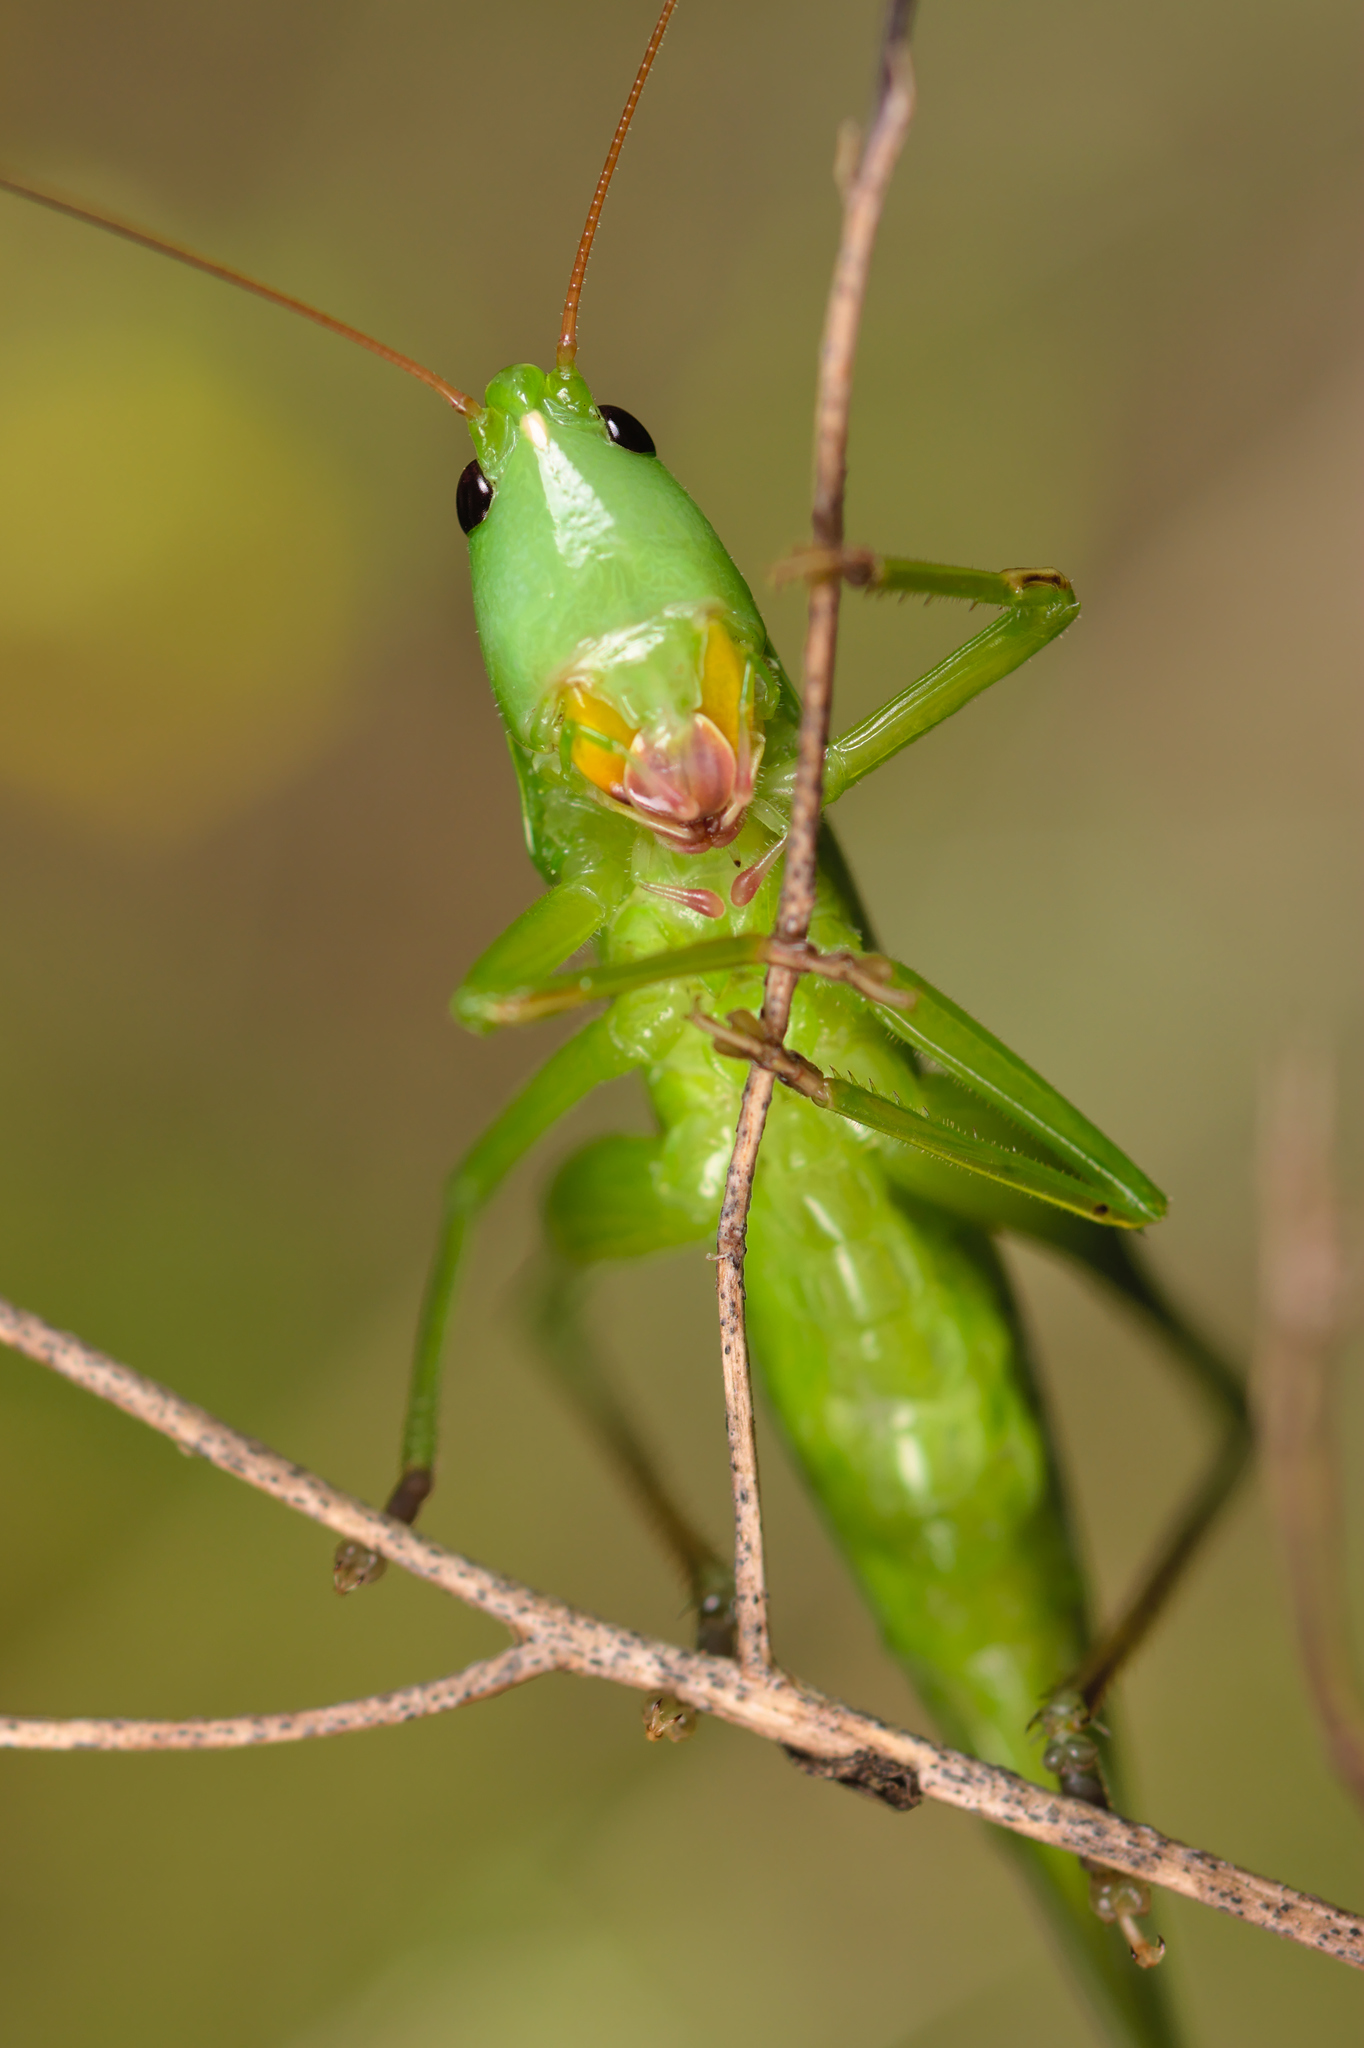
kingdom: Animalia
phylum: Arthropoda
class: Insecta
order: Orthoptera
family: Tettigoniidae
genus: Ruspolia
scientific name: Ruspolia nitidula
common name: Large conehead
